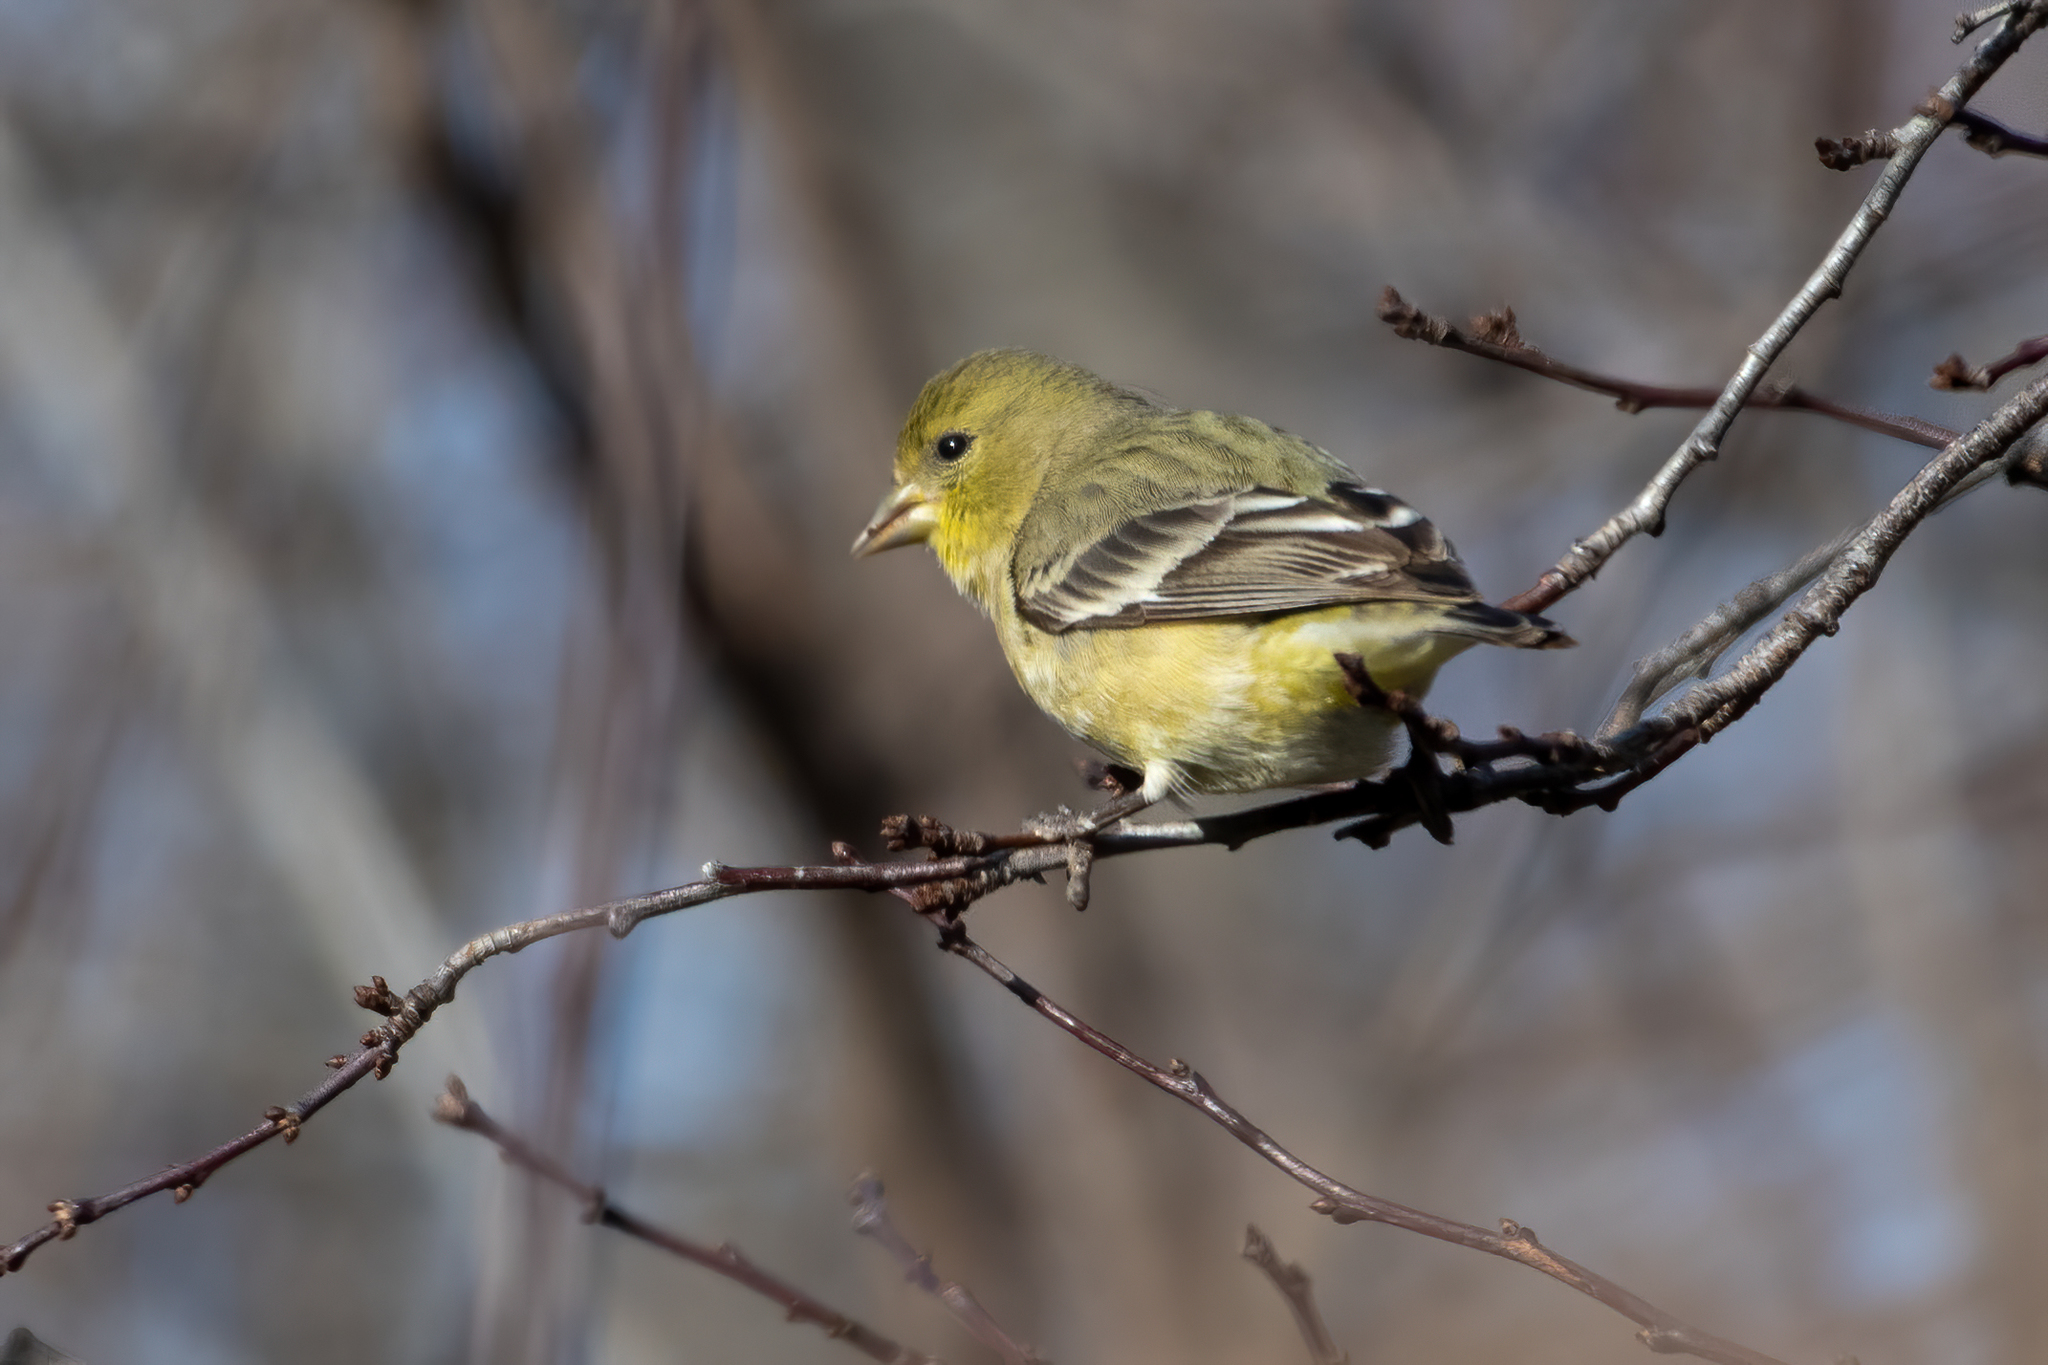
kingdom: Animalia
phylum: Chordata
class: Aves
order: Passeriformes
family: Fringillidae
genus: Spinus
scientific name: Spinus psaltria
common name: Lesser goldfinch
